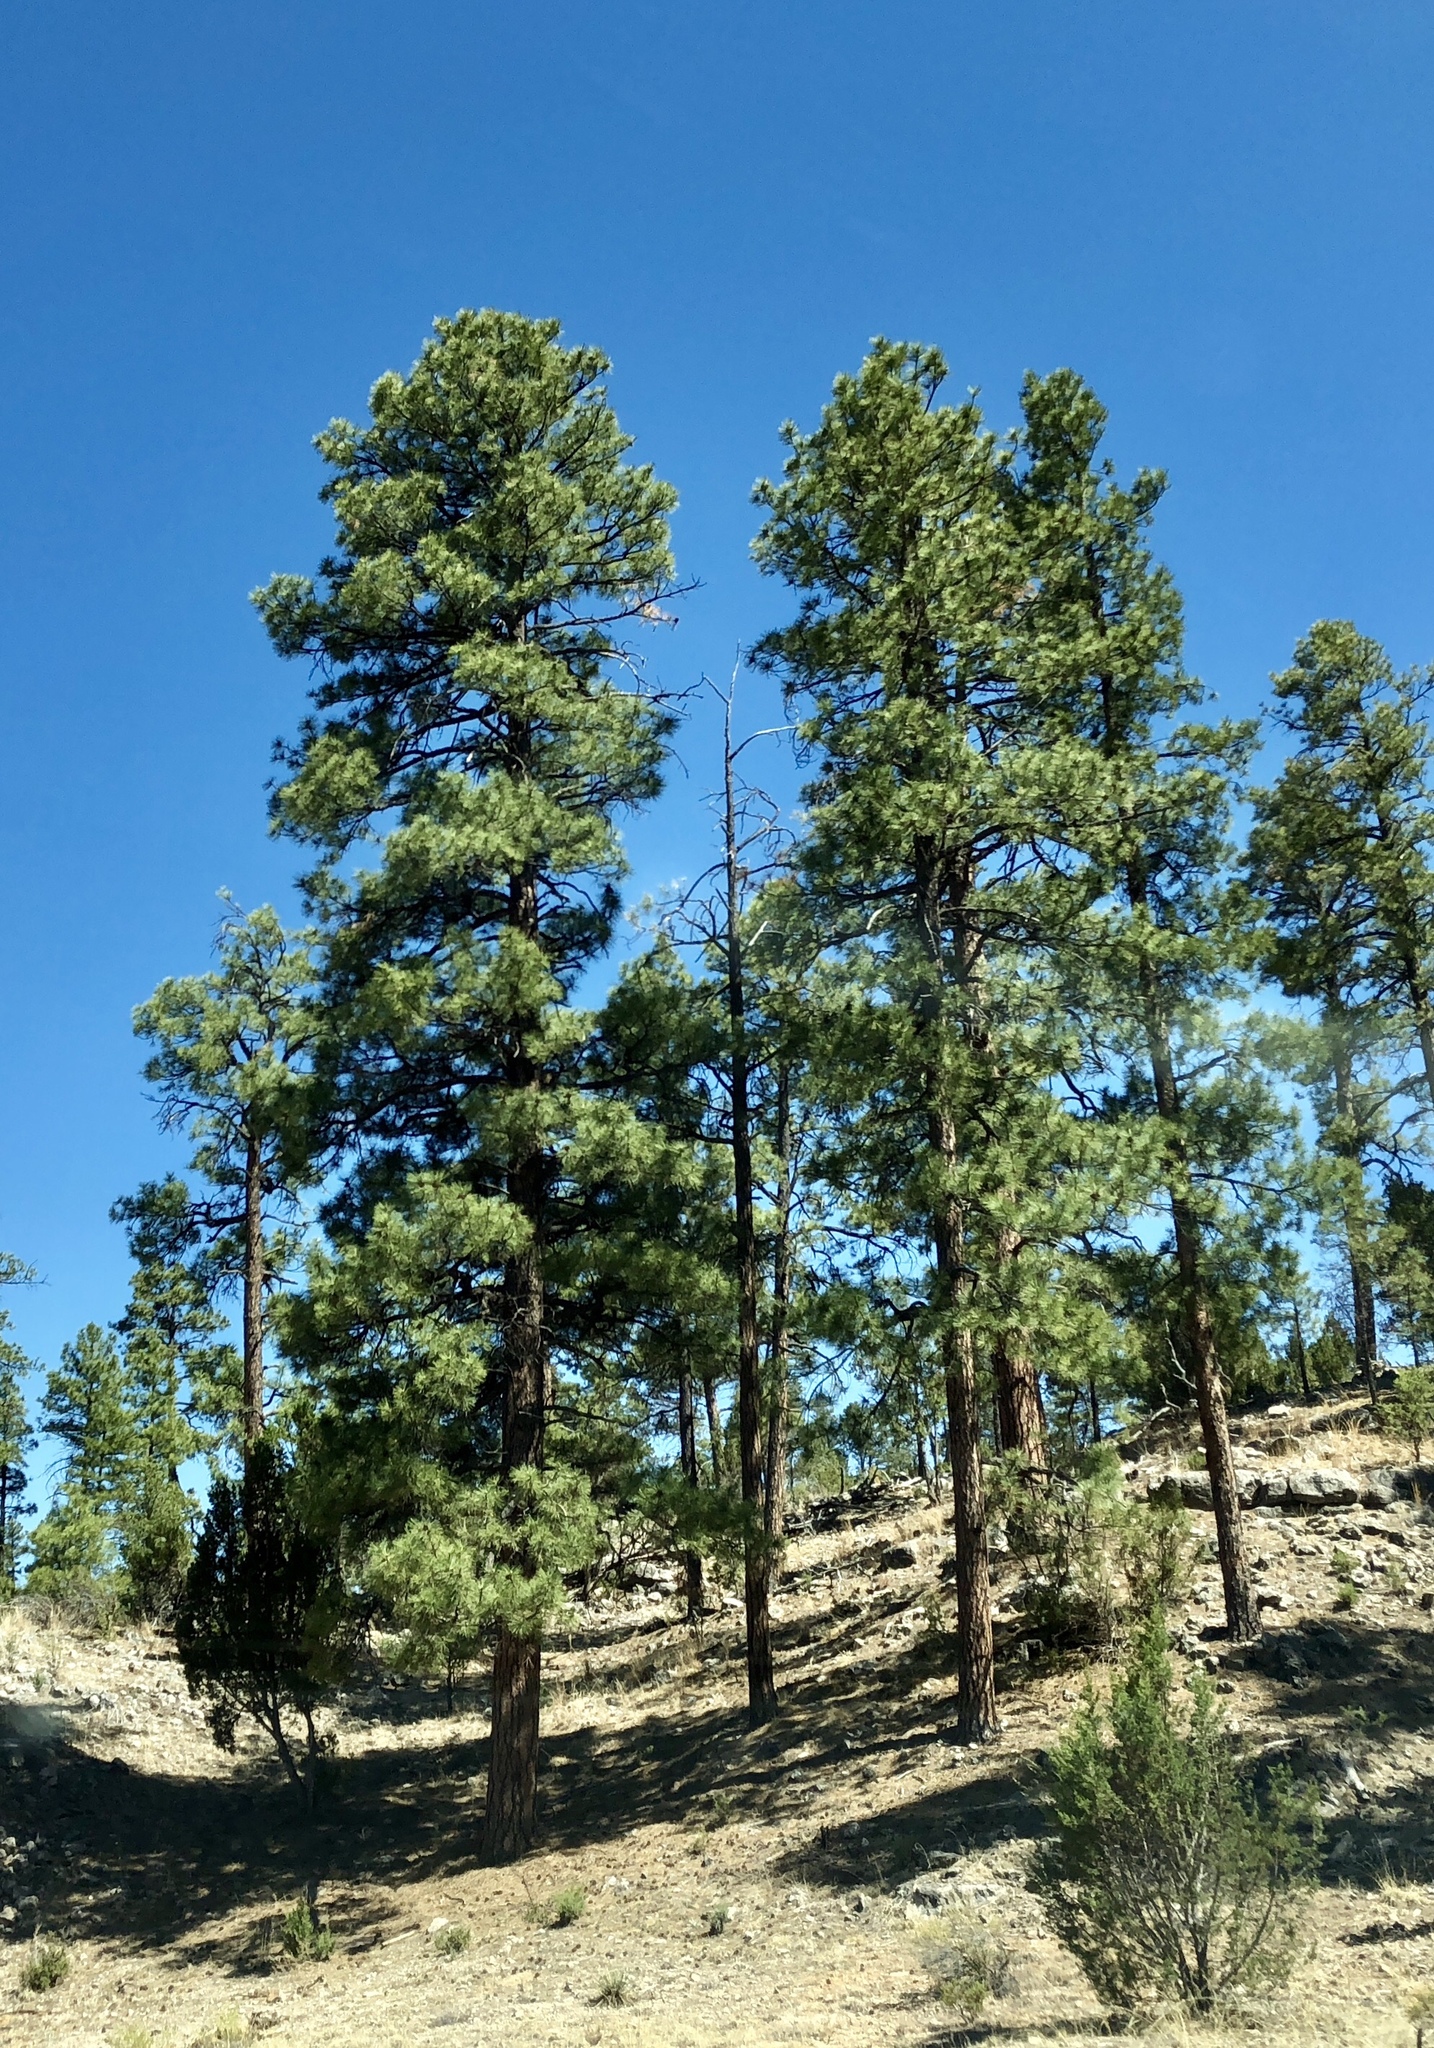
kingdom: Plantae
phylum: Tracheophyta
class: Pinopsida
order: Pinales
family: Pinaceae
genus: Pinus
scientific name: Pinus ponderosa
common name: Western yellow-pine
